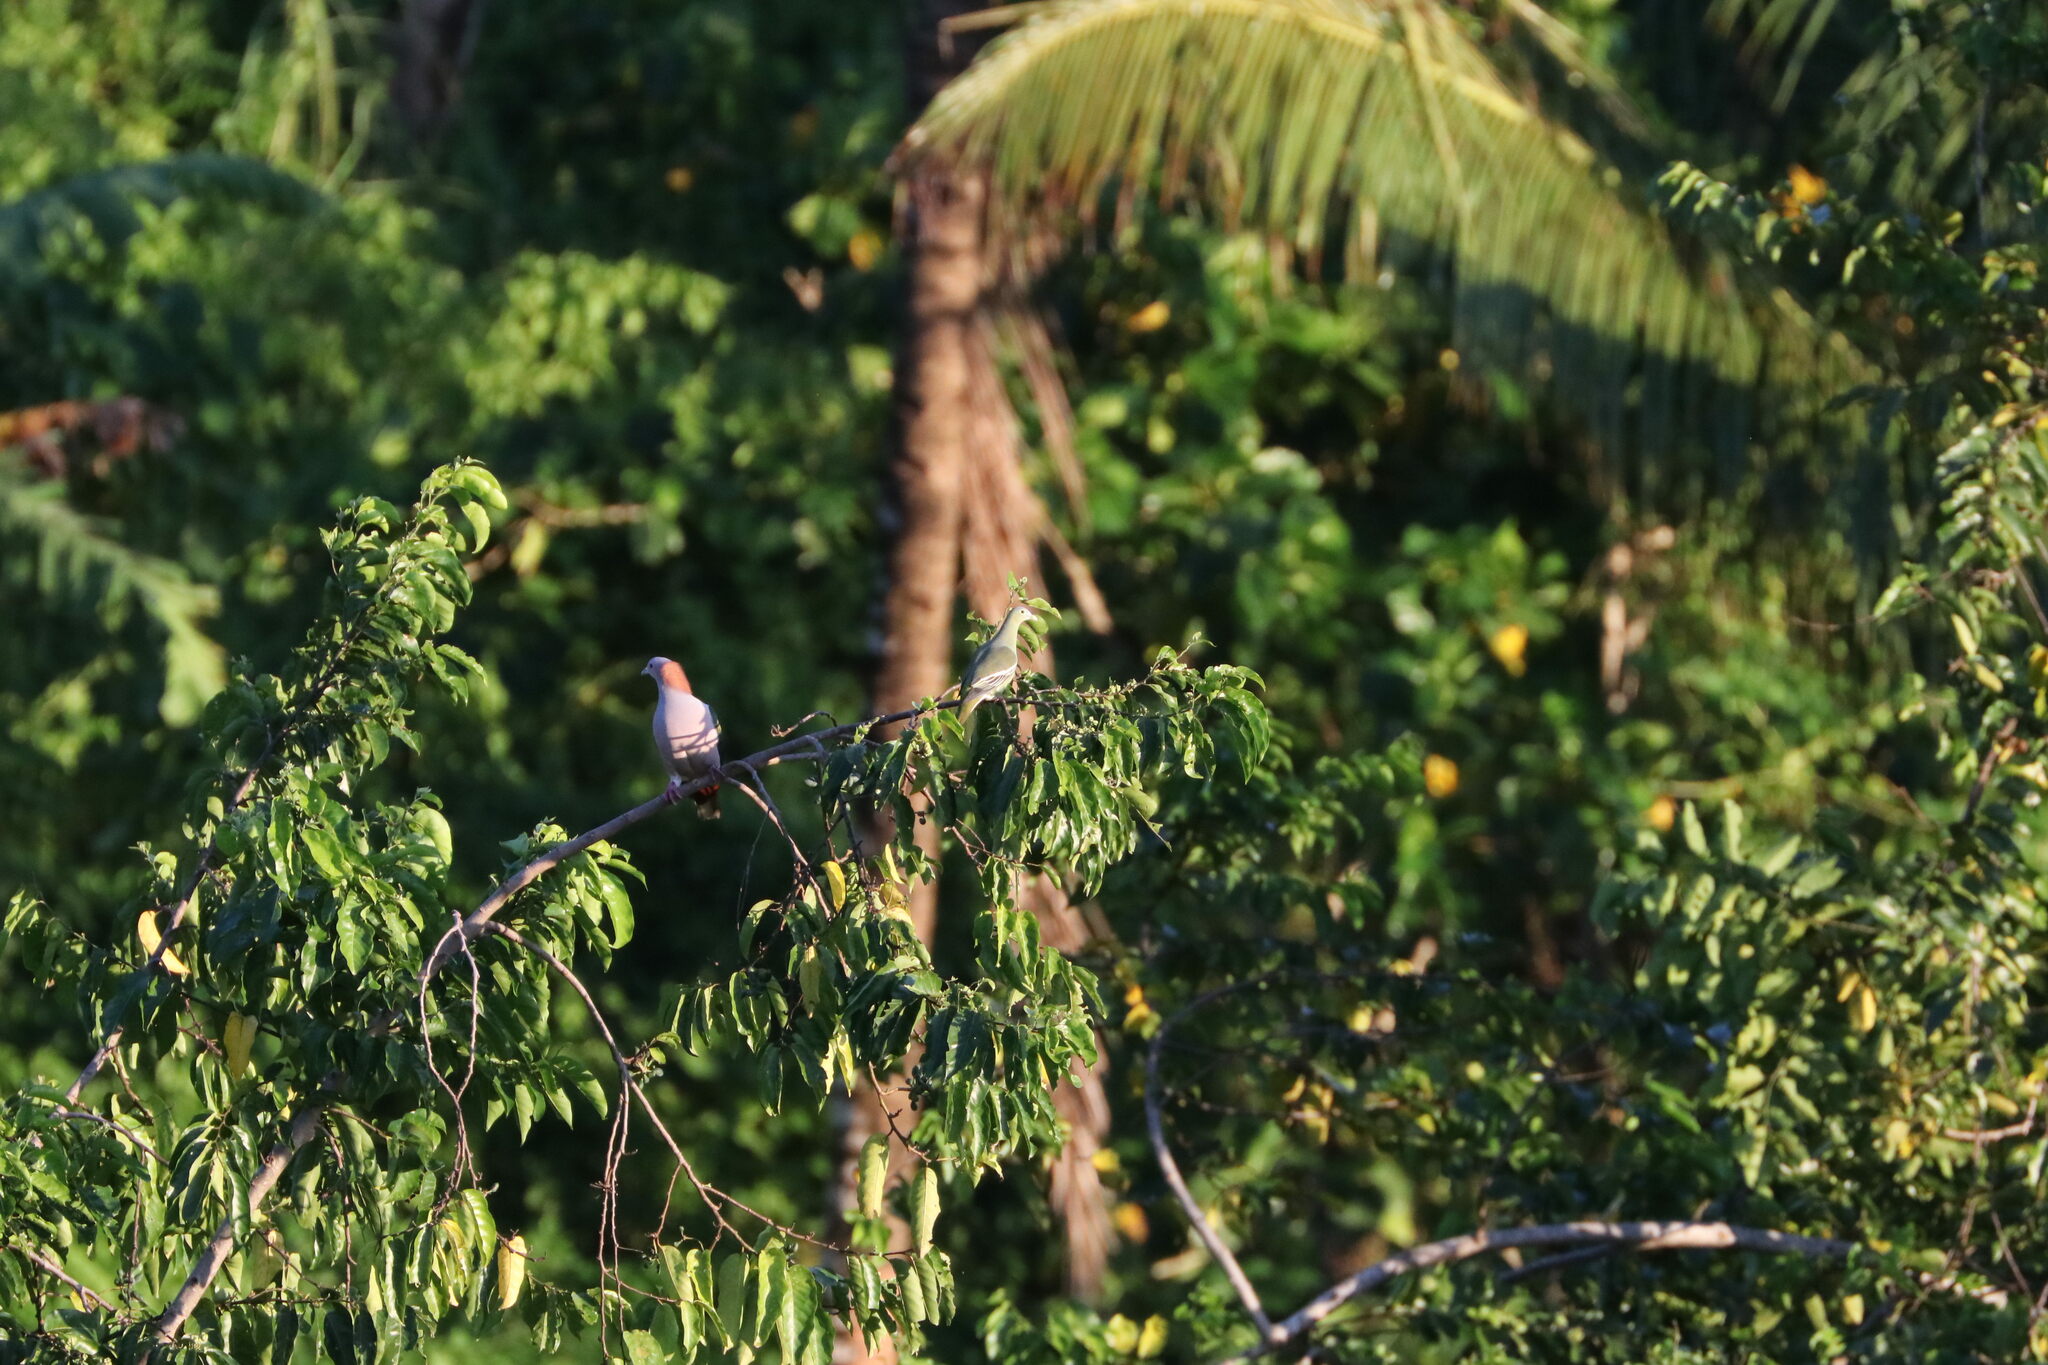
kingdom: Animalia
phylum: Chordata
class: Aves
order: Columbiformes
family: Columbidae
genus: Treron
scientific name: Treron griseicauda
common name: Grey-cheeked green pigeon
